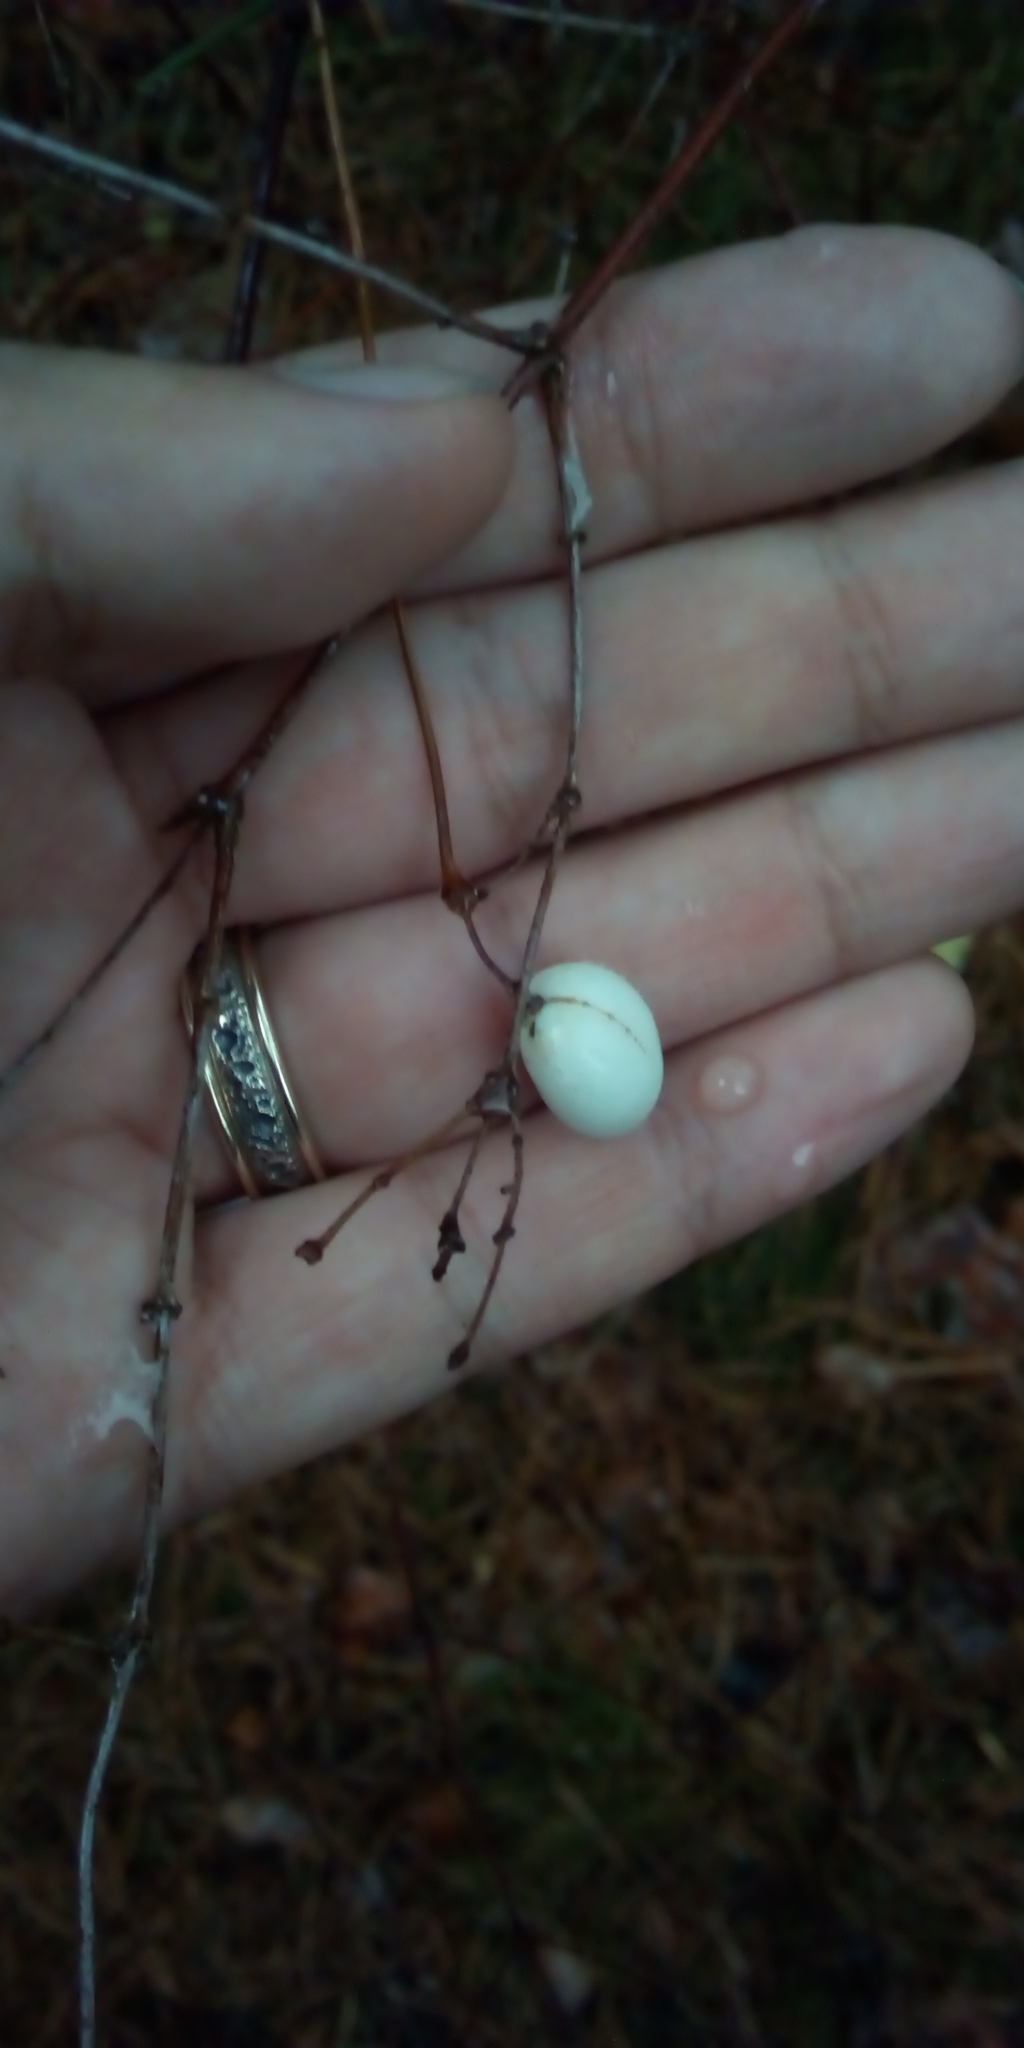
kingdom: Plantae
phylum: Tracheophyta
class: Magnoliopsida
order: Dipsacales
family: Caprifoliaceae
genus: Symphoricarpos
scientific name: Symphoricarpos albus
